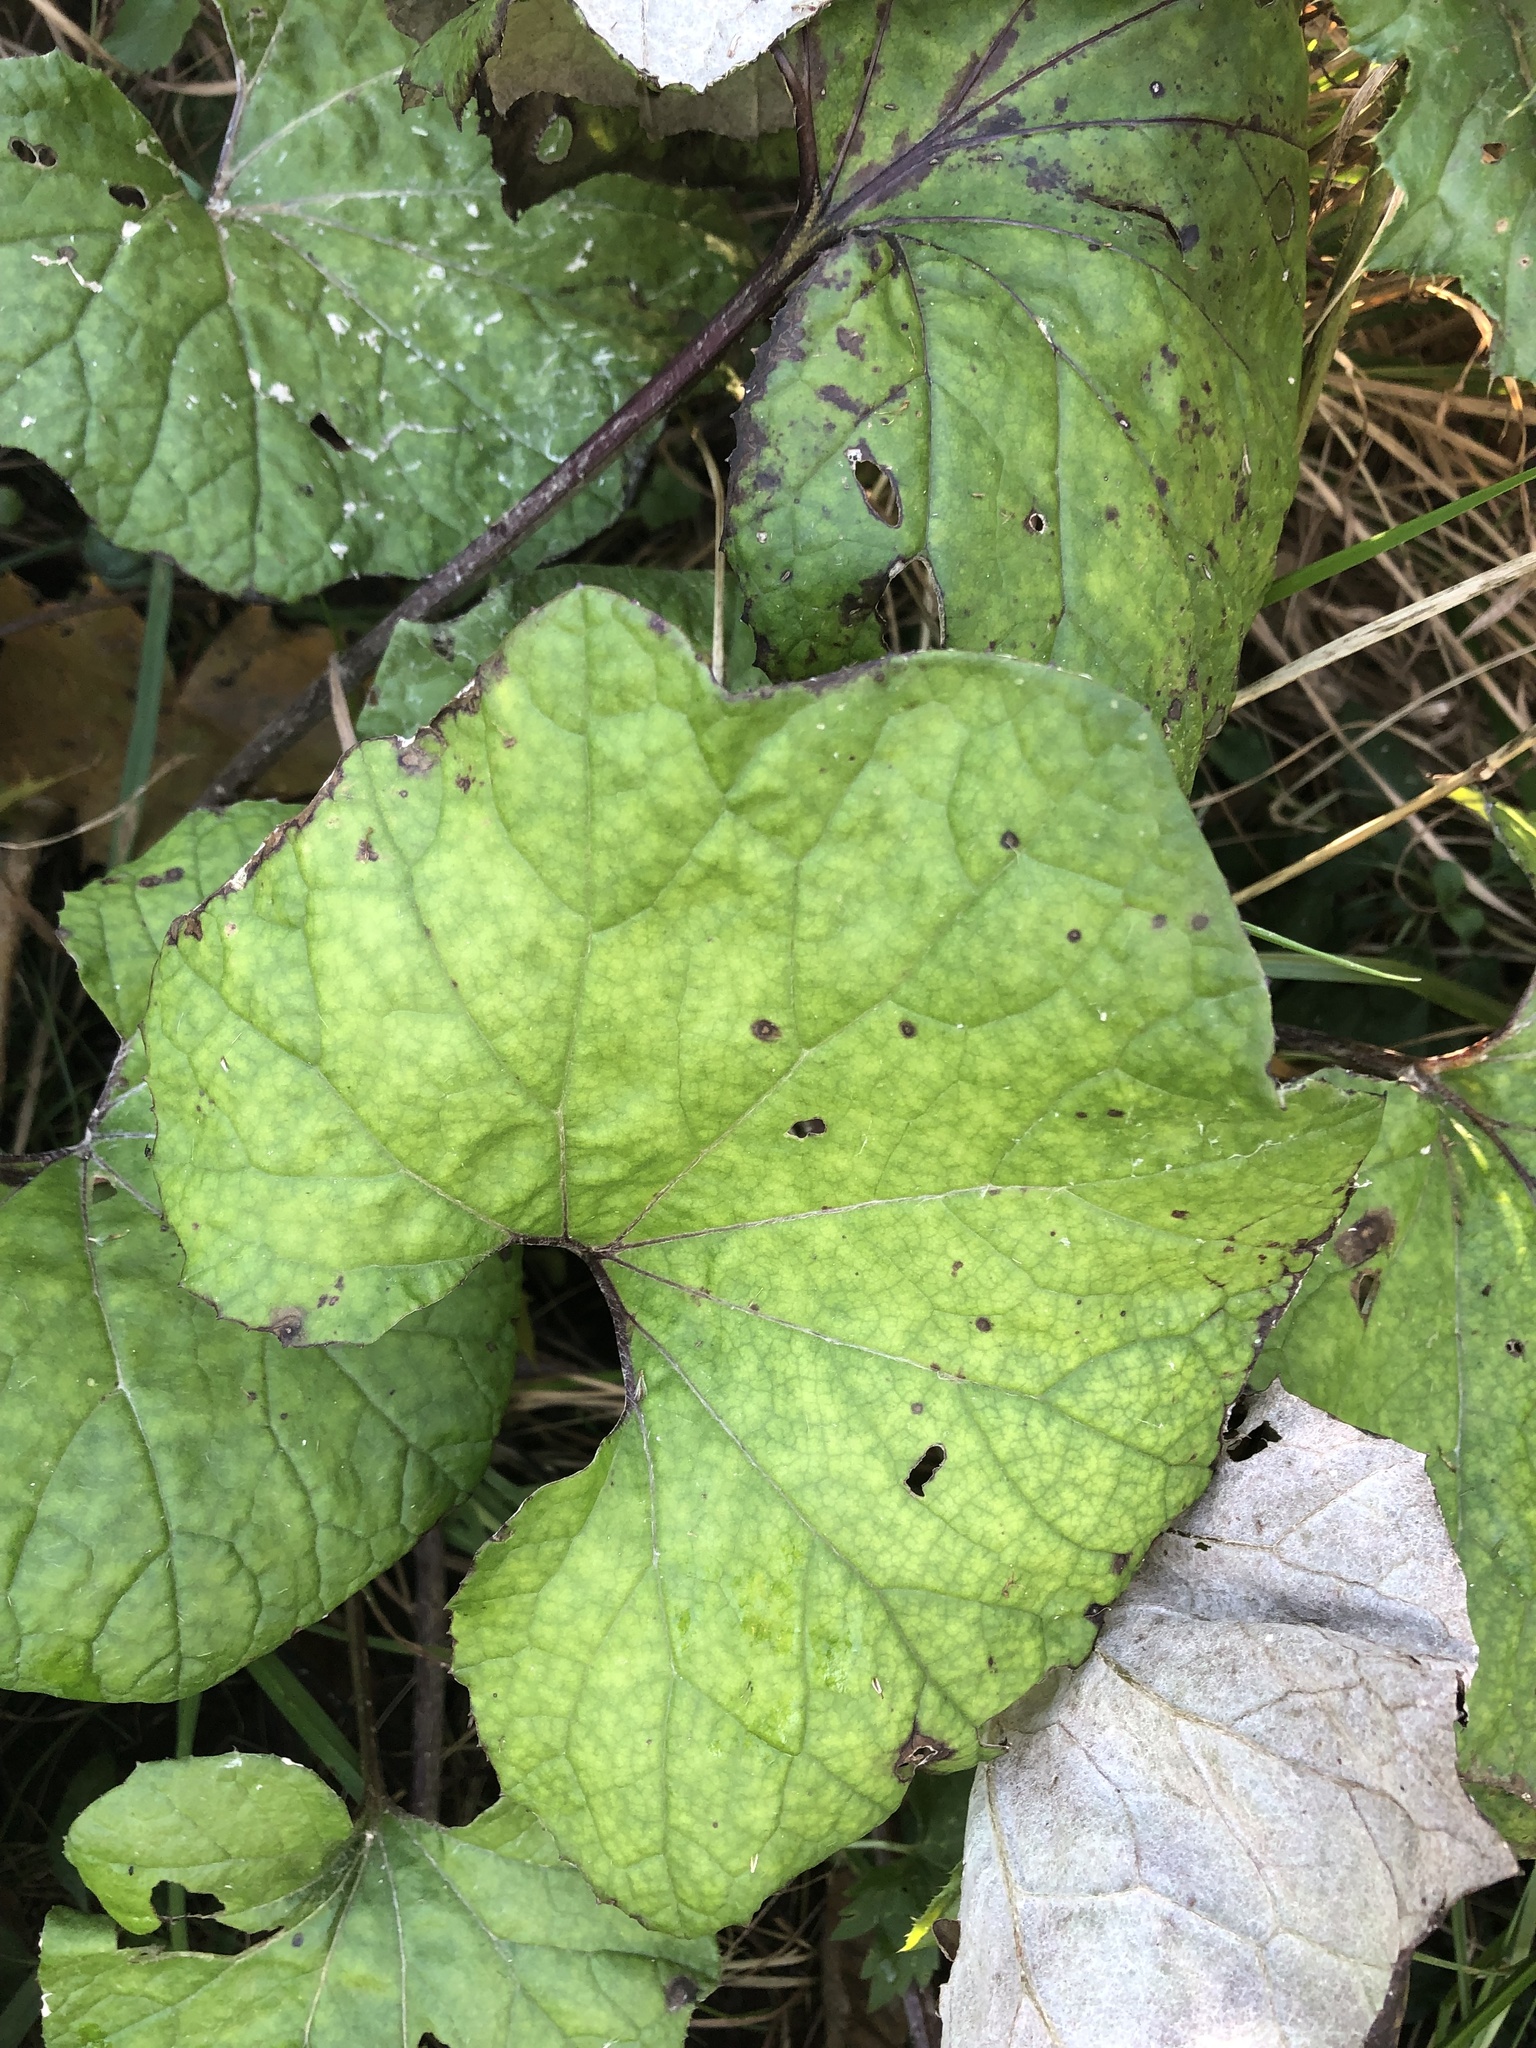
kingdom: Plantae
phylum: Tracheophyta
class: Magnoliopsida
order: Asterales
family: Asteraceae
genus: Tussilago
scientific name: Tussilago farfara
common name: Coltsfoot
